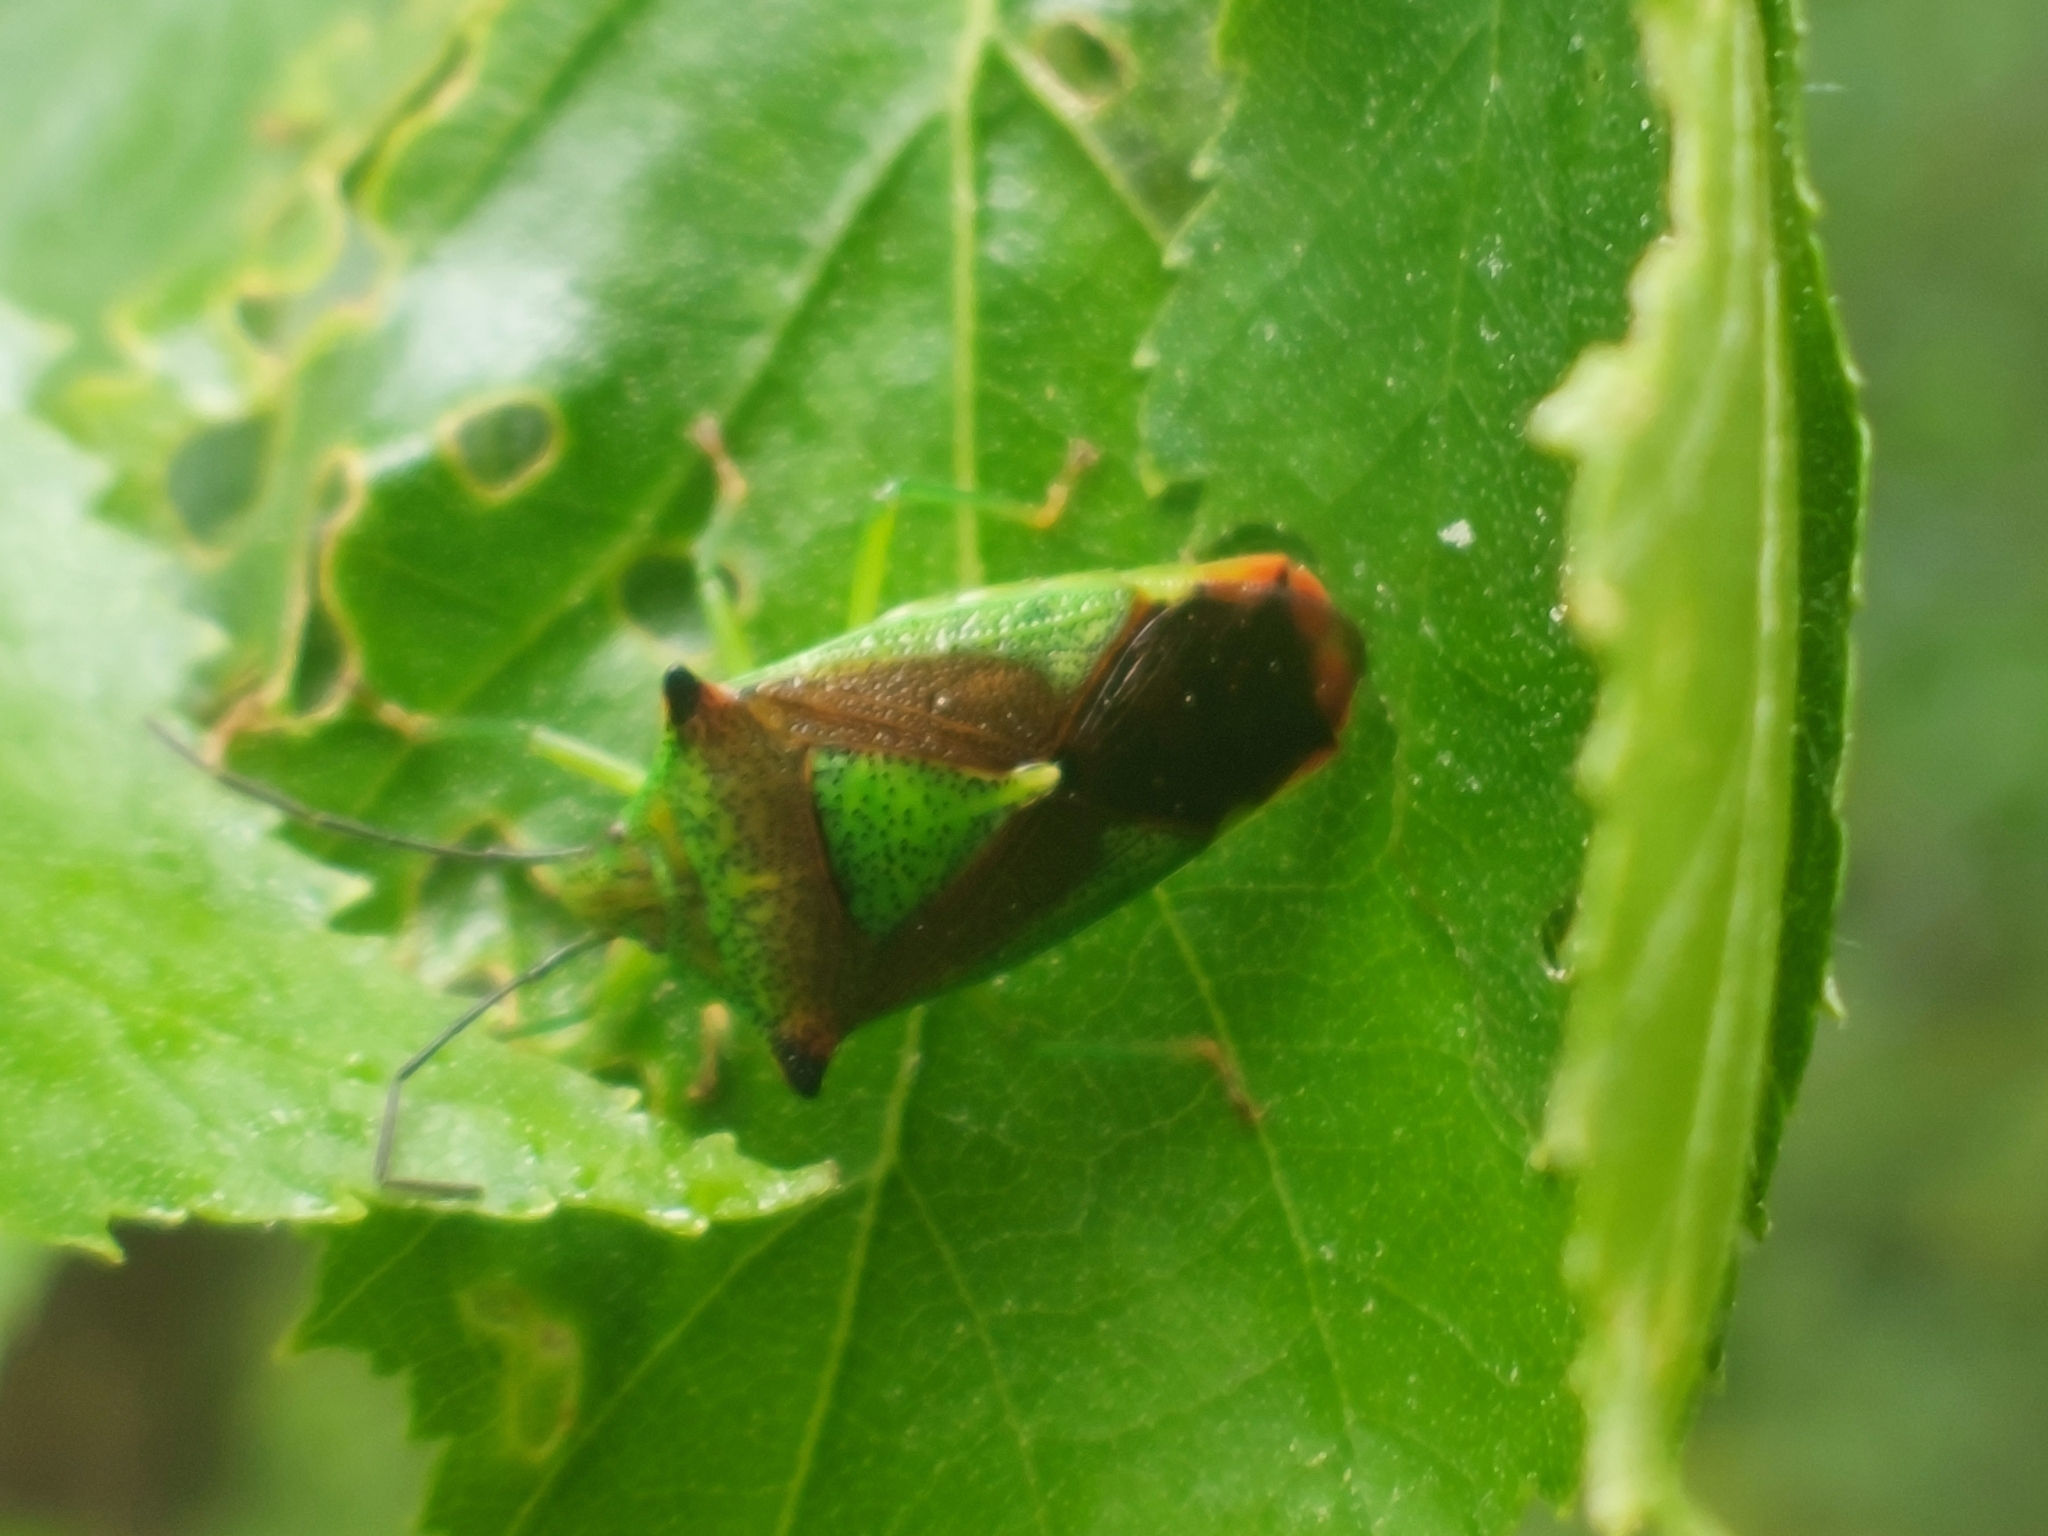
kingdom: Animalia
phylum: Arthropoda
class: Insecta
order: Hemiptera
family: Acanthosomatidae
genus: Acanthosoma
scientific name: Acanthosoma haemorrhoidale
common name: Hawthorn shieldbug
